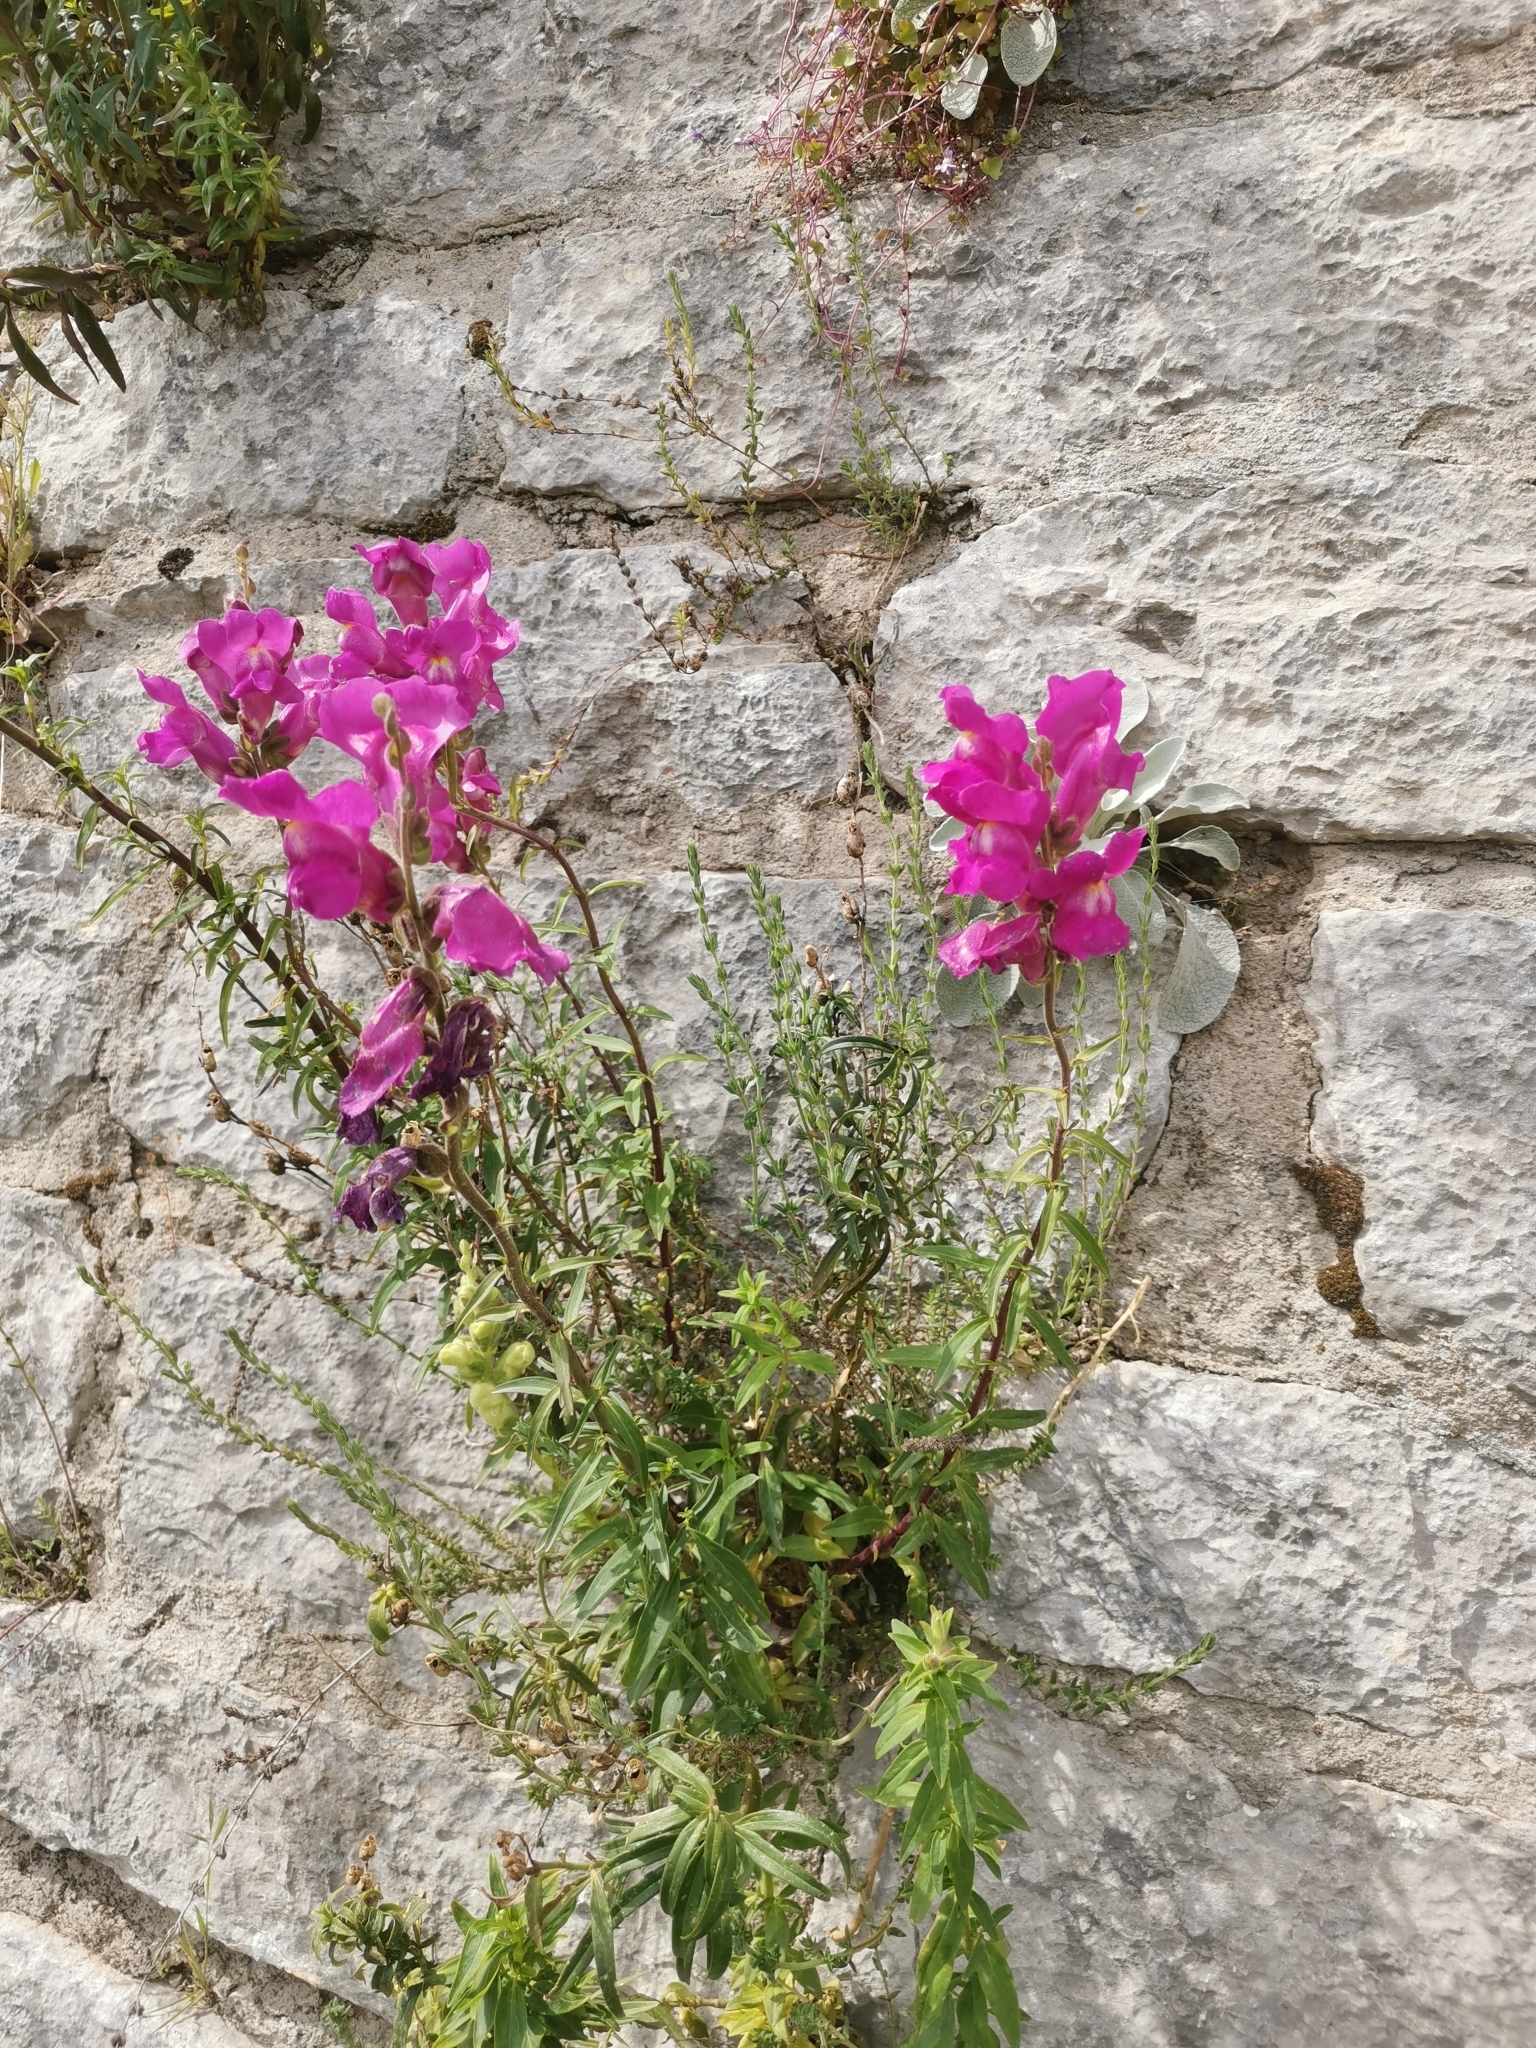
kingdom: Plantae
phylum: Tracheophyta
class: Magnoliopsida
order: Lamiales
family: Plantaginaceae
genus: Antirrhinum
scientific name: Antirrhinum majus
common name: Snapdragon
